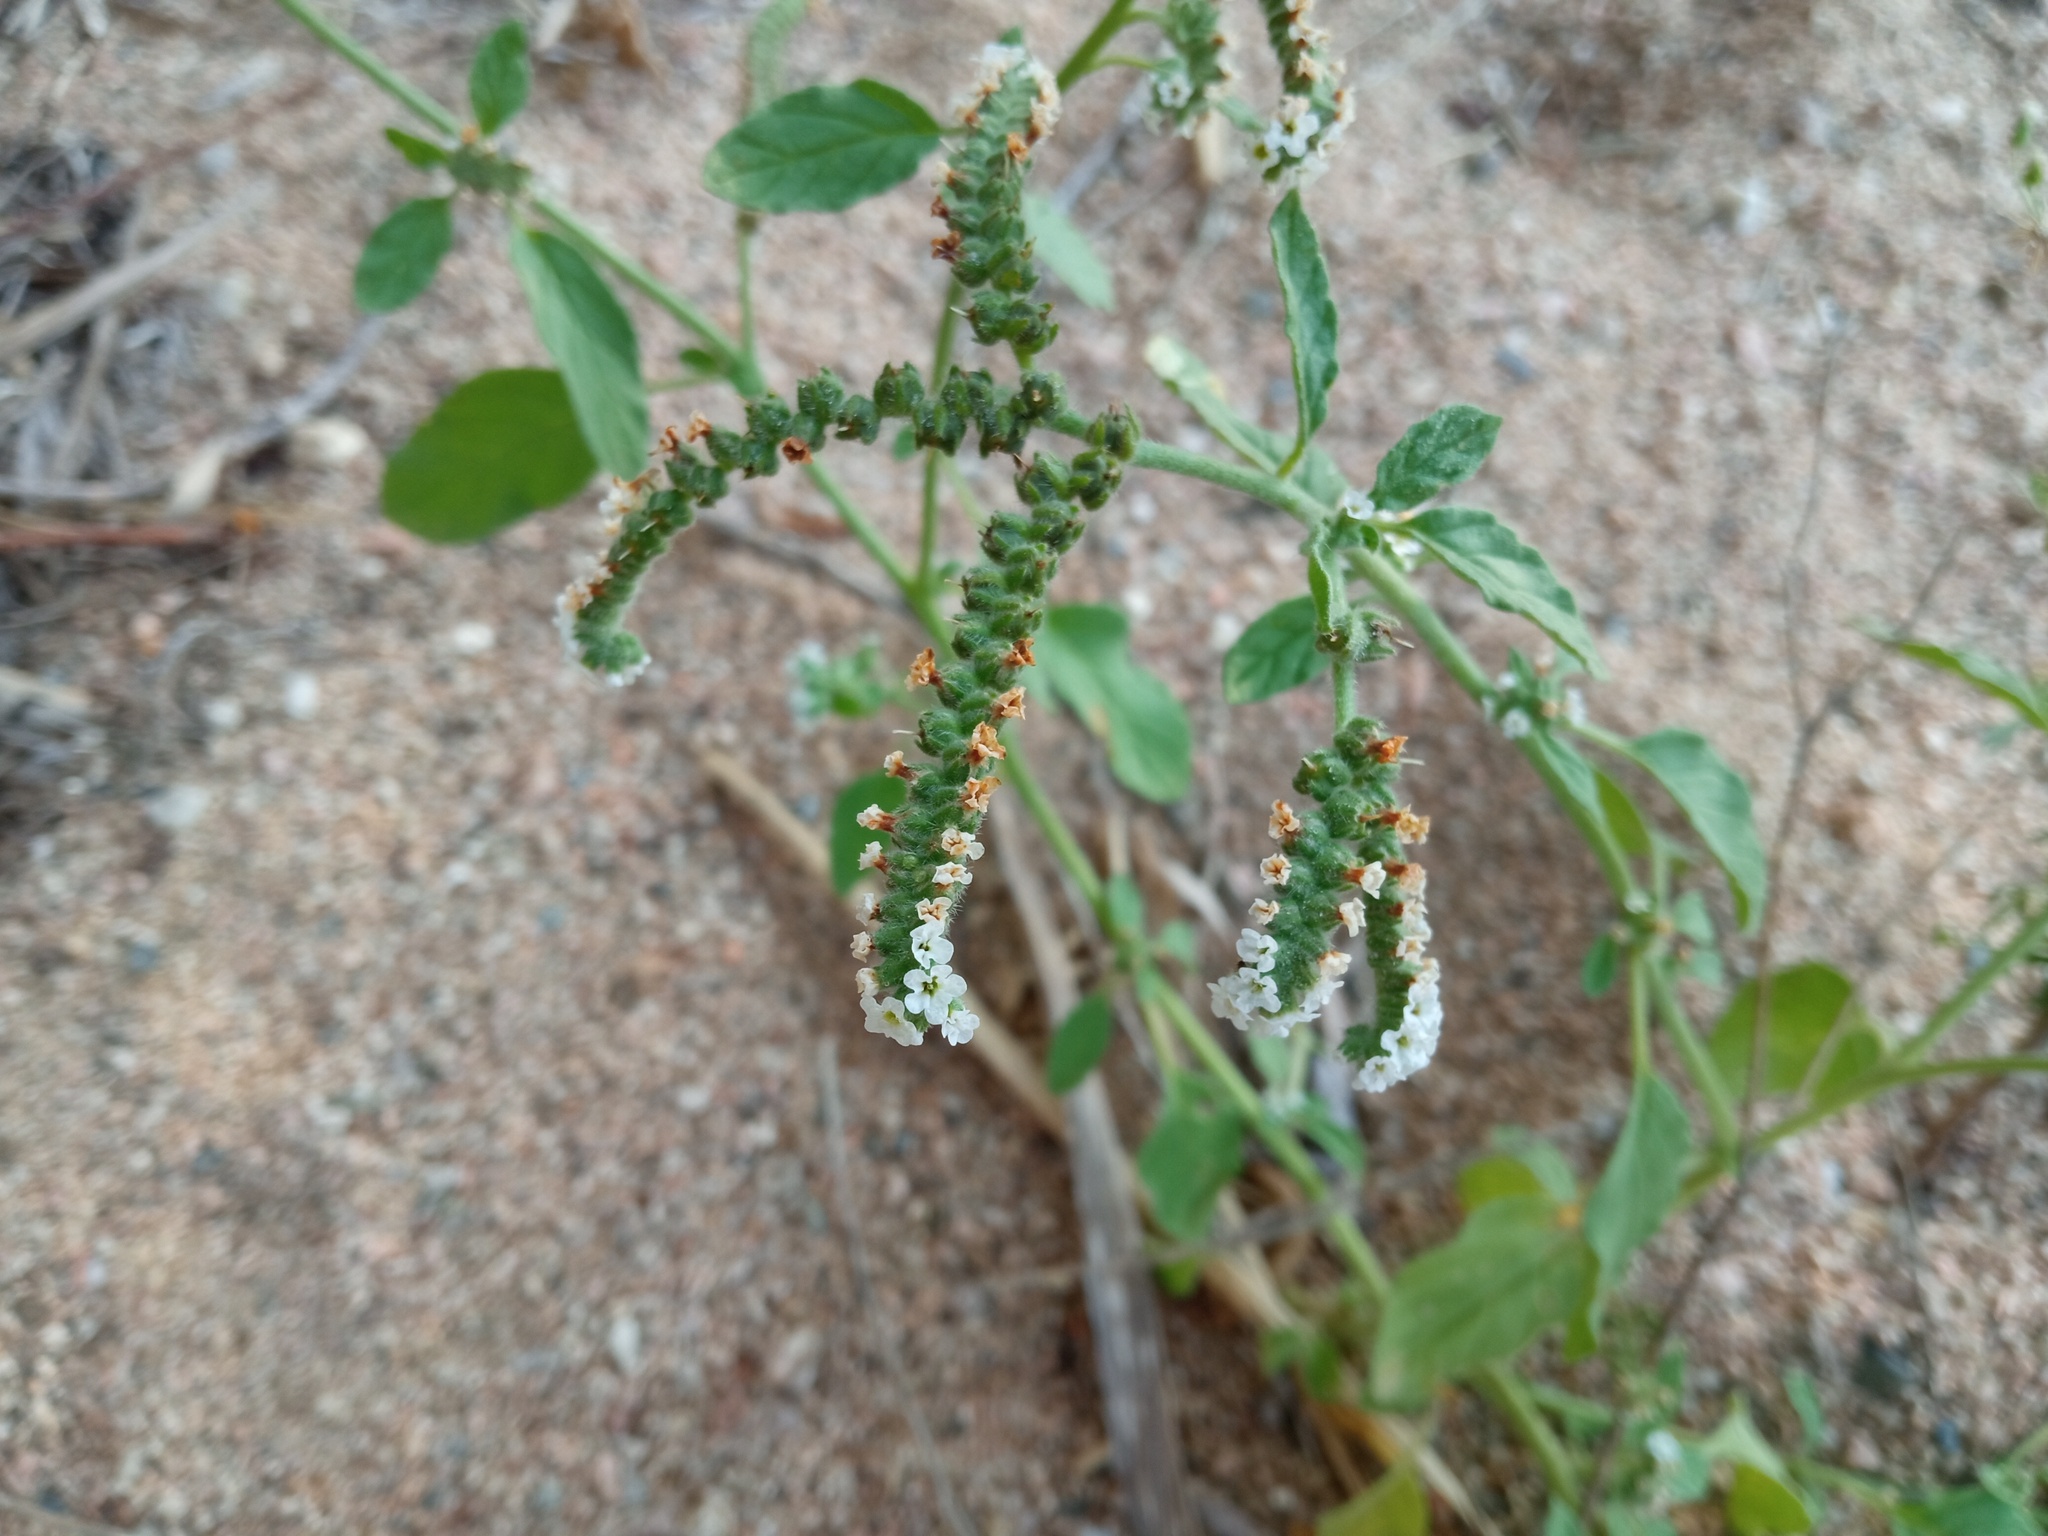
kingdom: Plantae
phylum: Tracheophyta
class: Magnoliopsida
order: Boraginales
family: Heliotropiaceae
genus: Heliotropium
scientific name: Heliotropium europaeum
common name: European heliotrope
